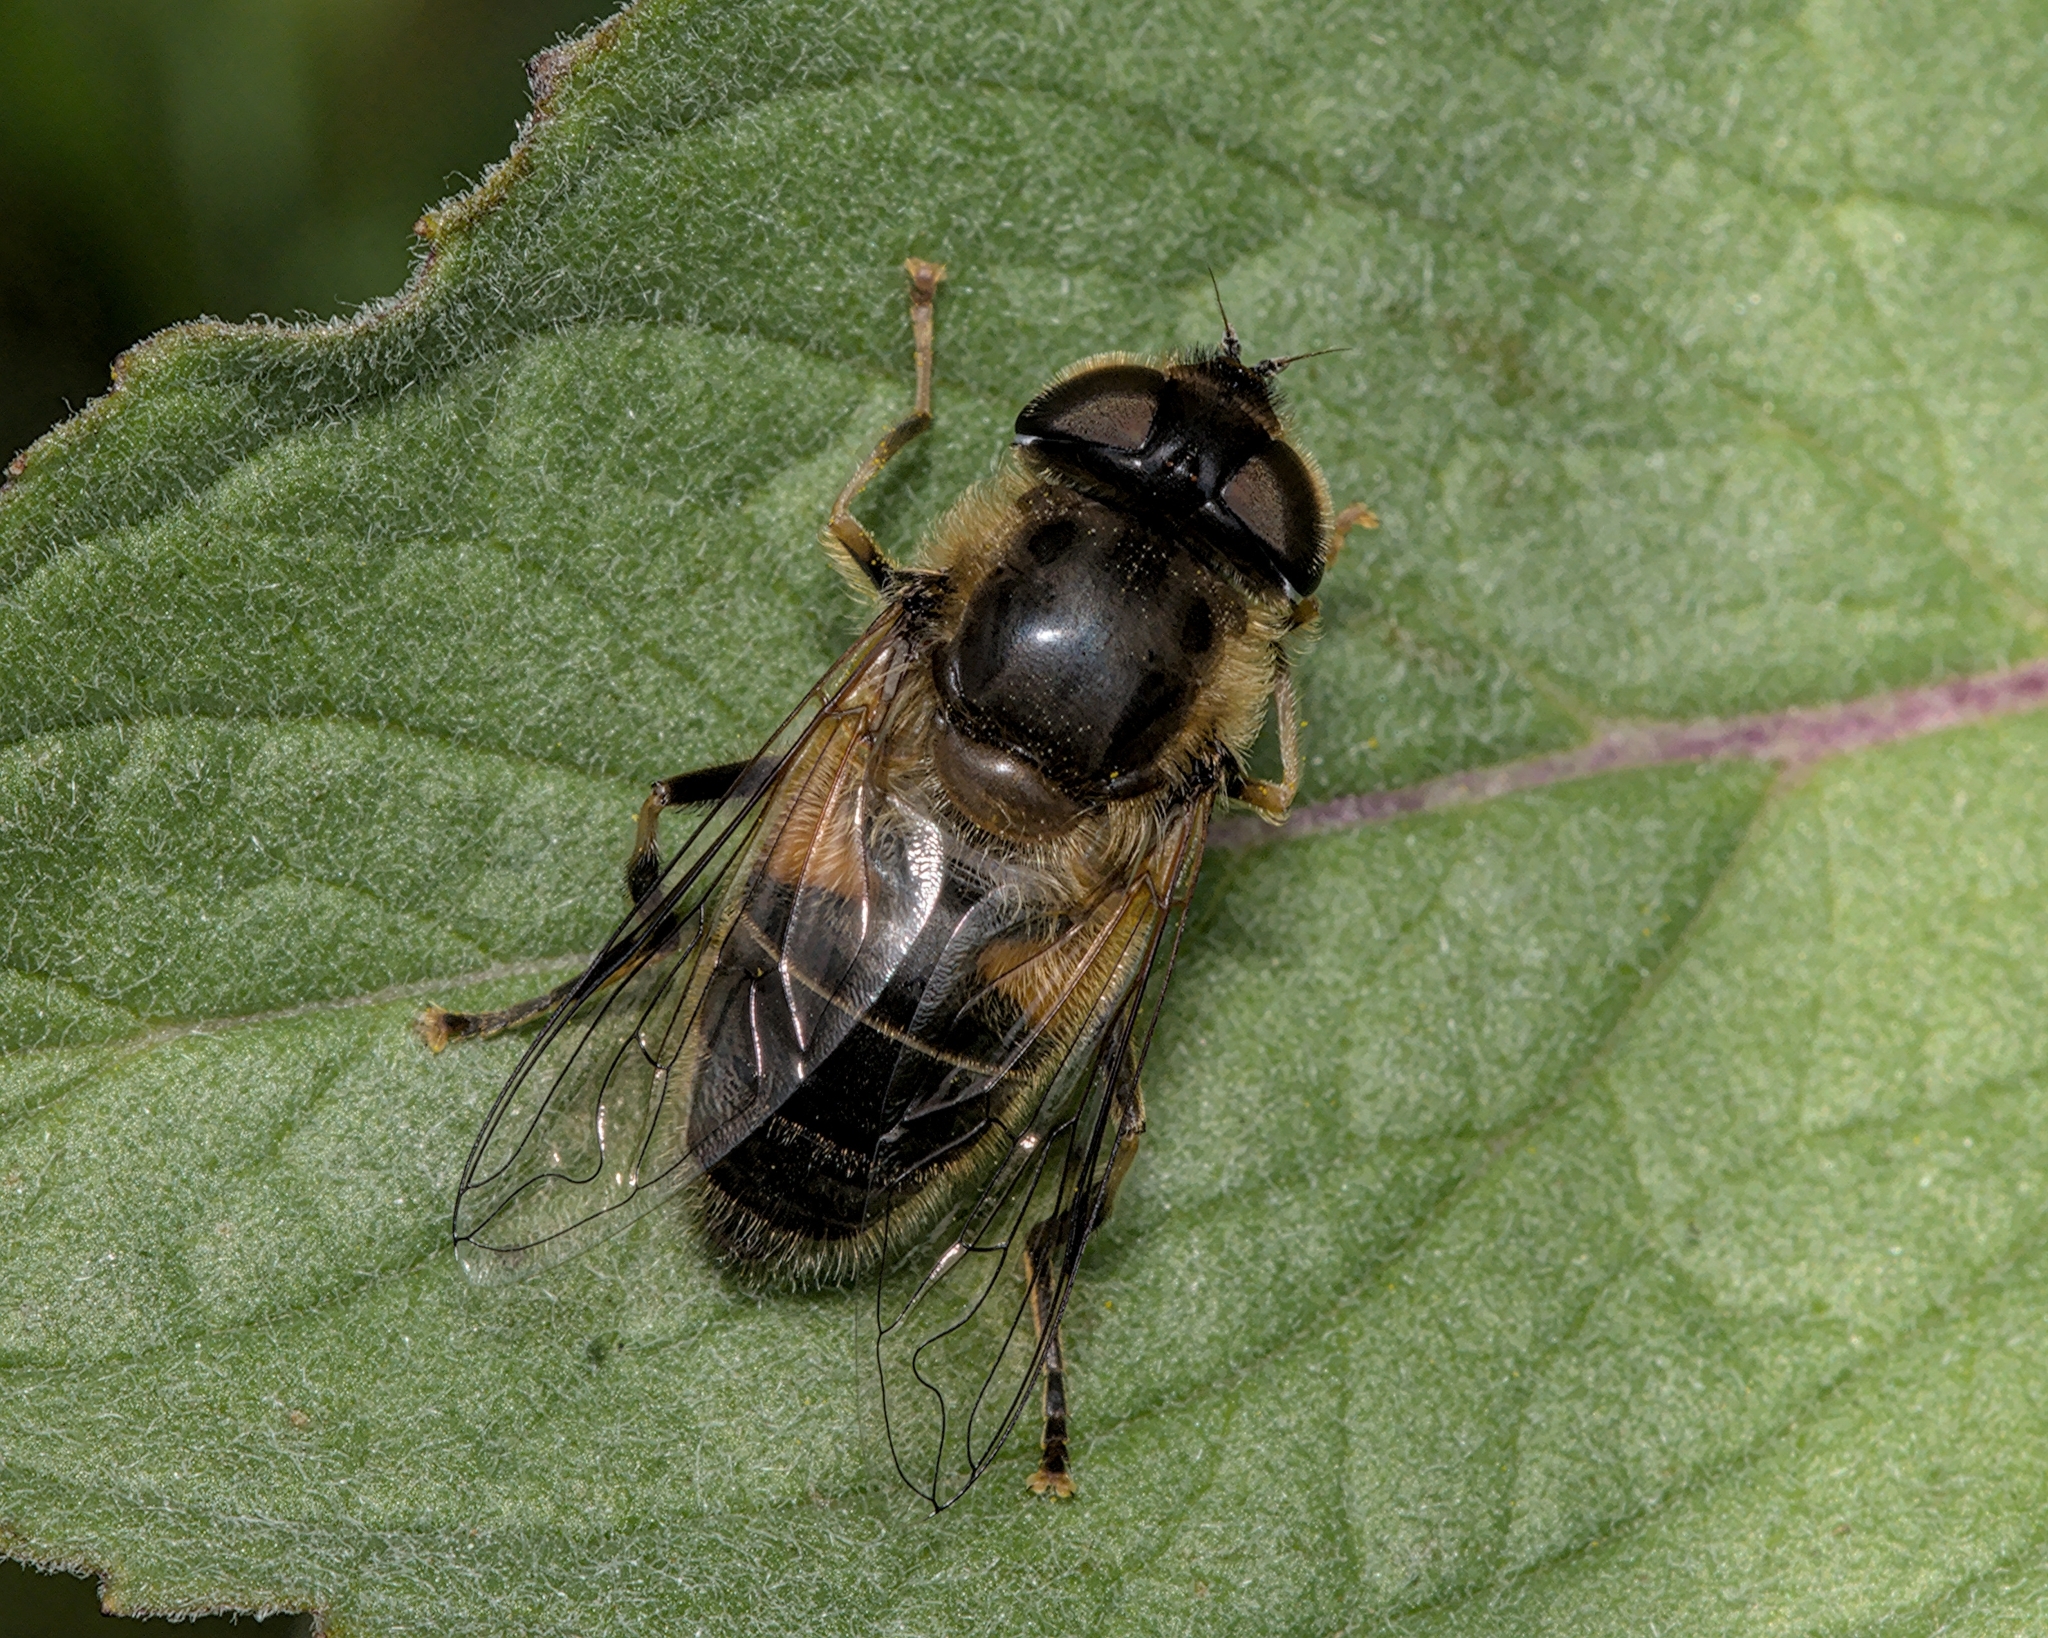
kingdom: Animalia
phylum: Arthropoda
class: Insecta
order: Diptera
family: Syrphidae
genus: Eristalis
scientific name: Eristalis pertinax
